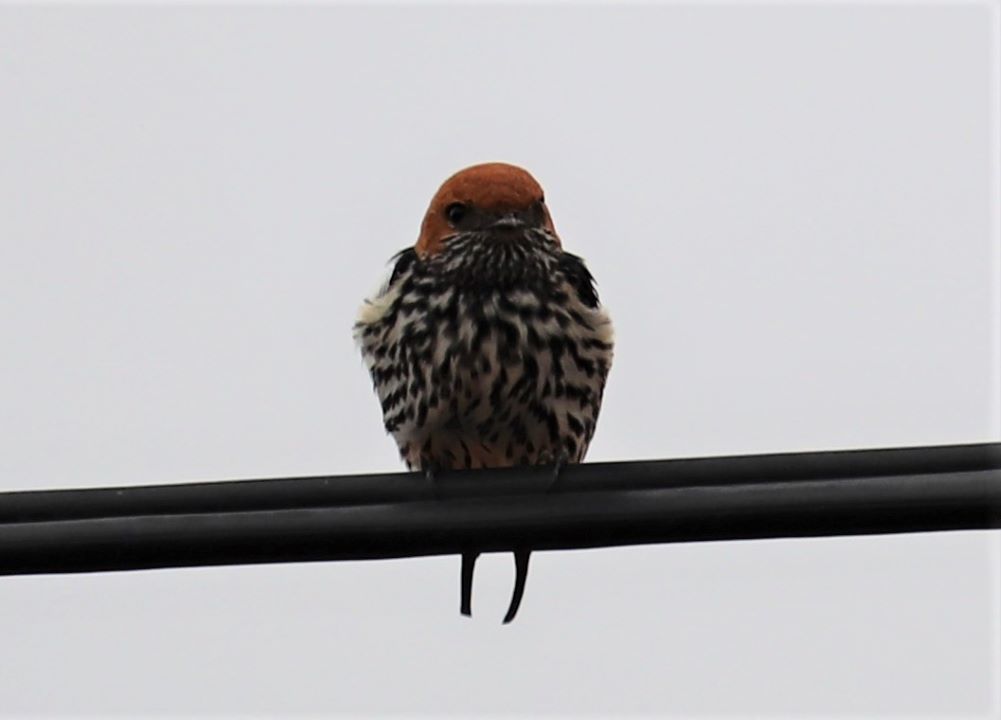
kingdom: Animalia
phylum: Chordata
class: Aves
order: Passeriformes
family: Hirundinidae
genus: Cecropis
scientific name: Cecropis abyssinica
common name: Lesser striped-swallow
